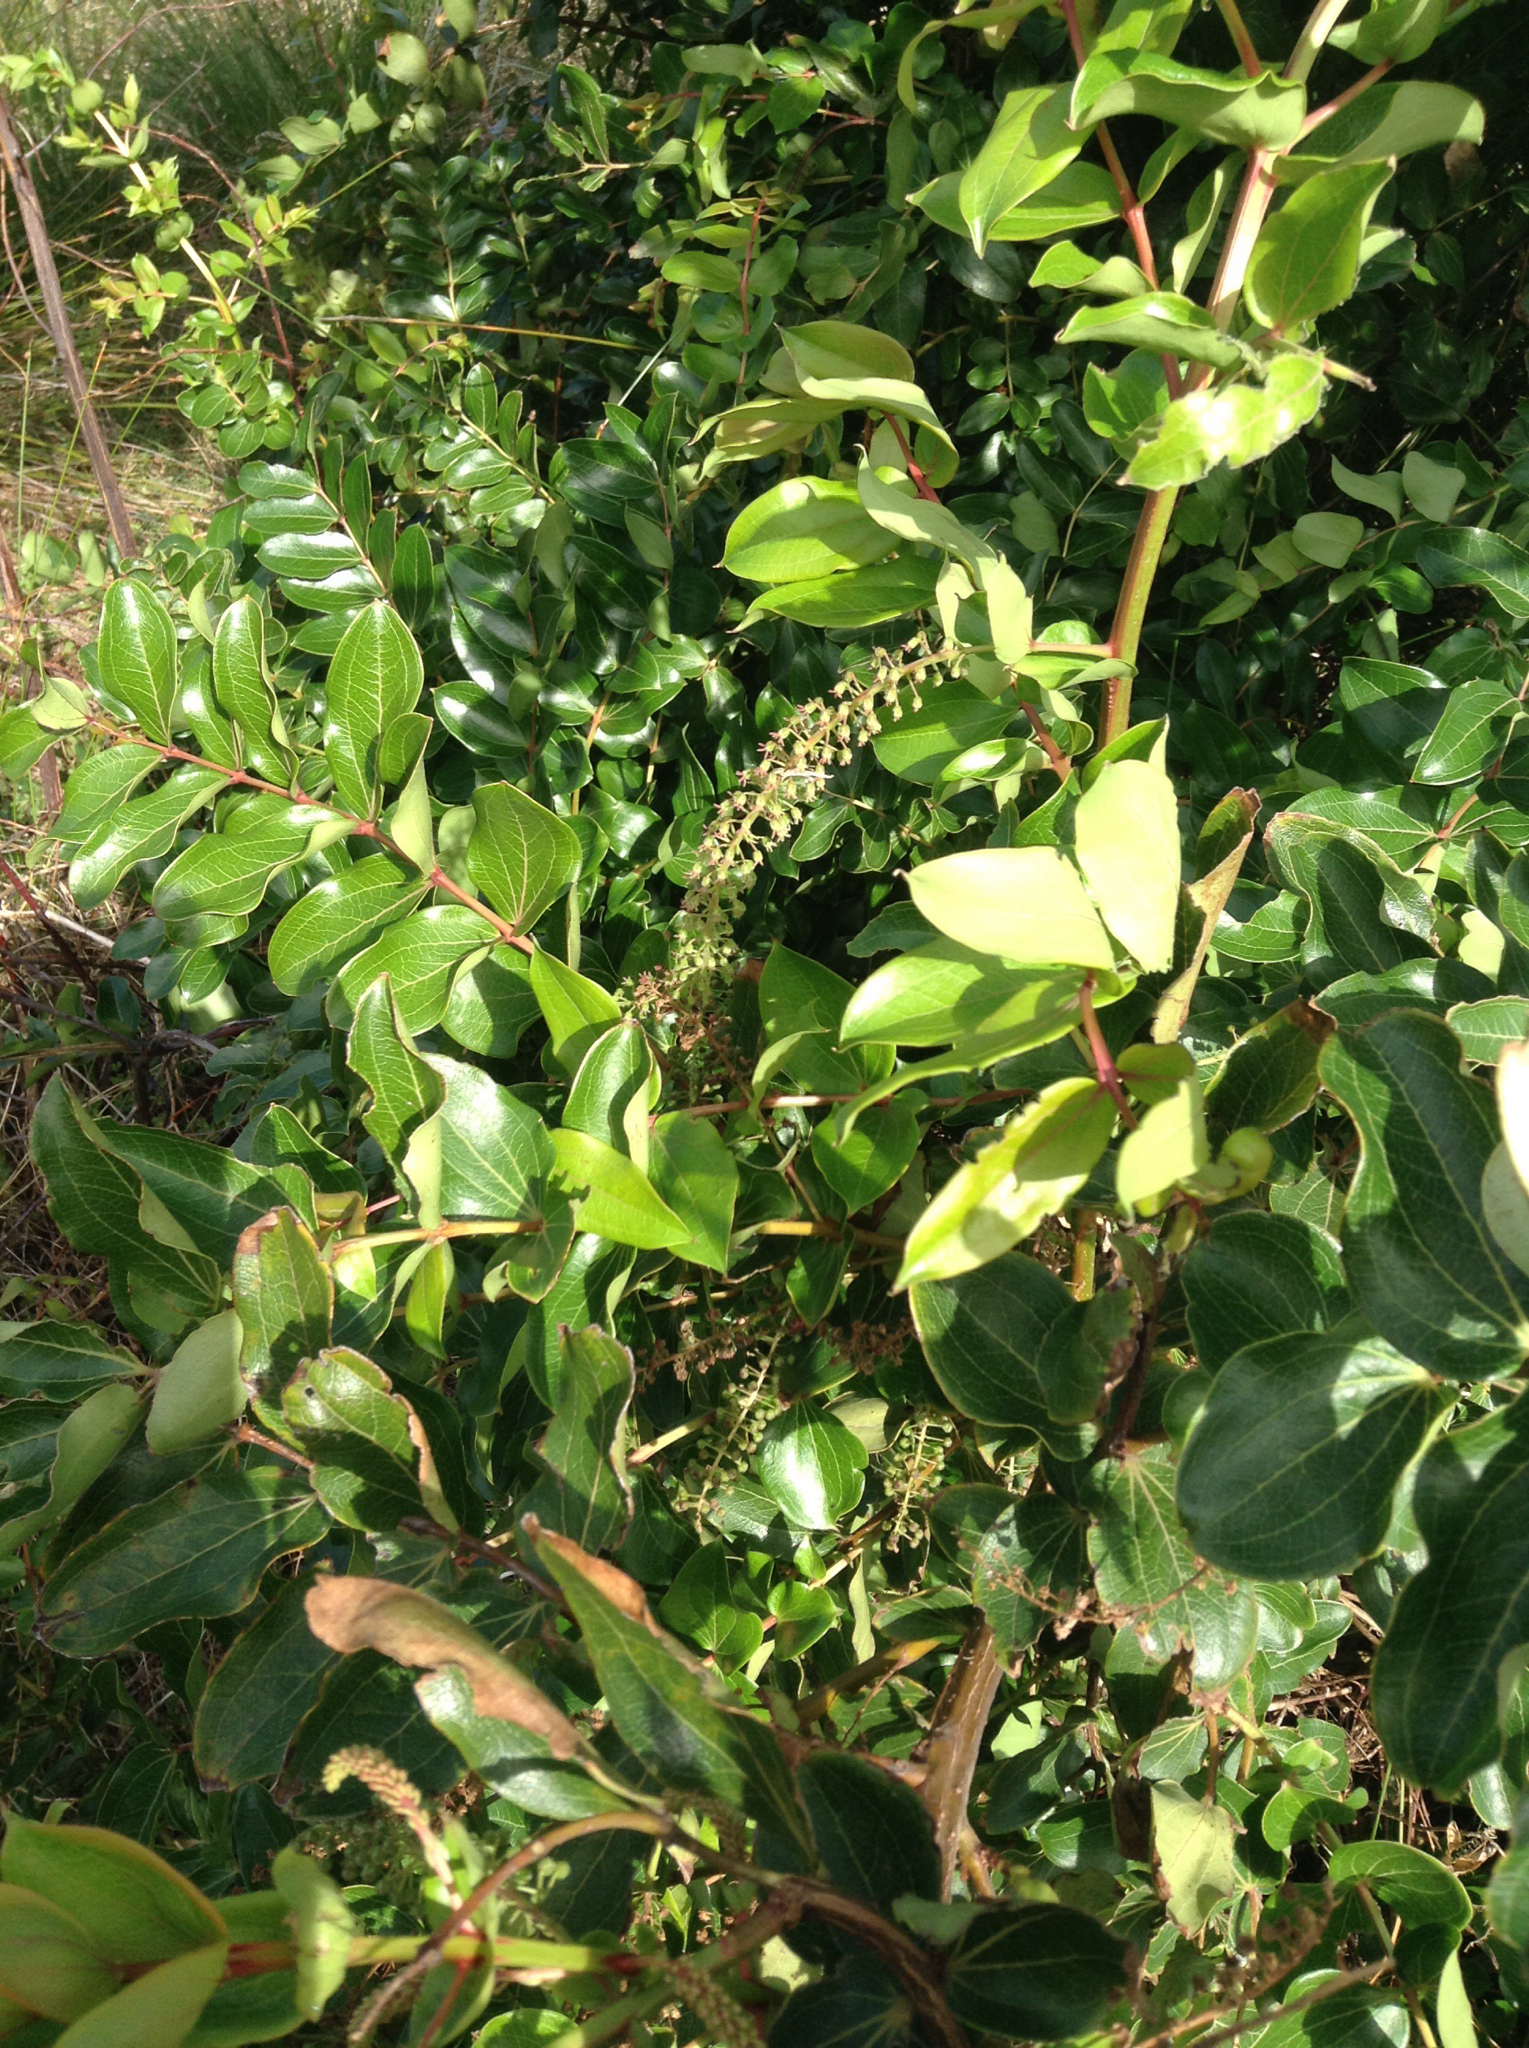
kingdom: Plantae
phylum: Tracheophyta
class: Magnoliopsida
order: Cucurbitales
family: Coriariaceae
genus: Coriaria
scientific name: Coriaria arborea
